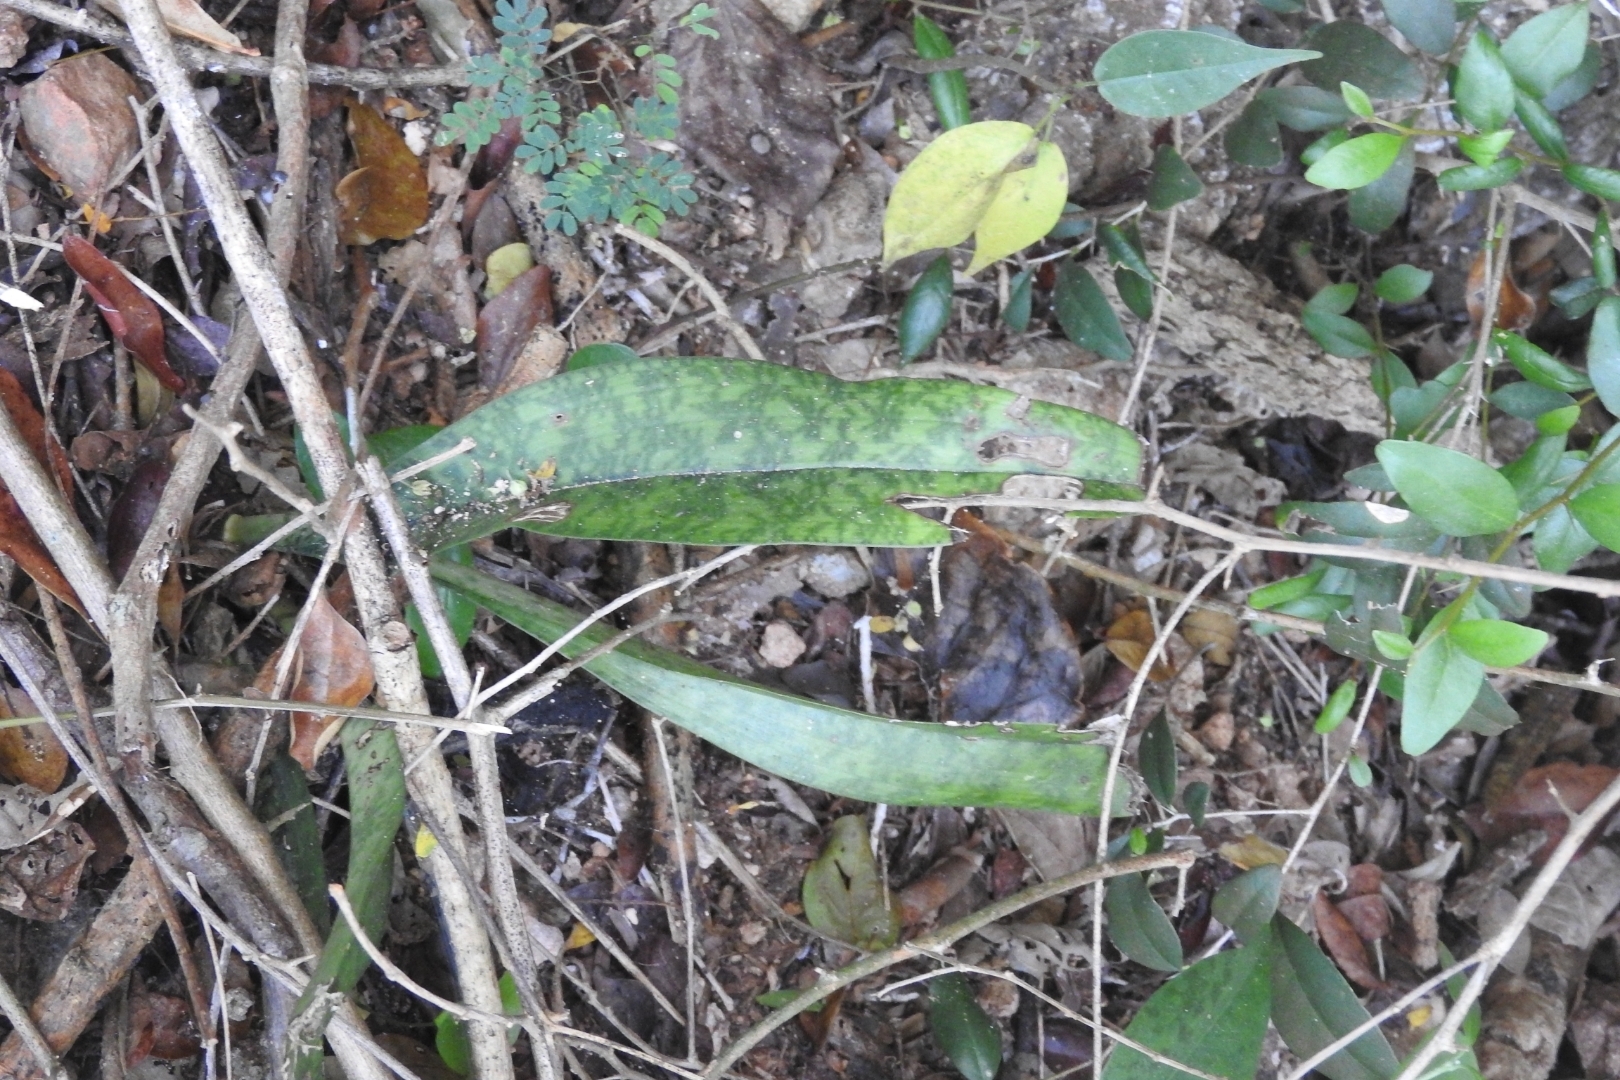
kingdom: Plantae
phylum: Tracheophyta
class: Liliopsida
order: Asparagales
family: Orchidaceae
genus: Eulophia
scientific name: Eulophia maculata
